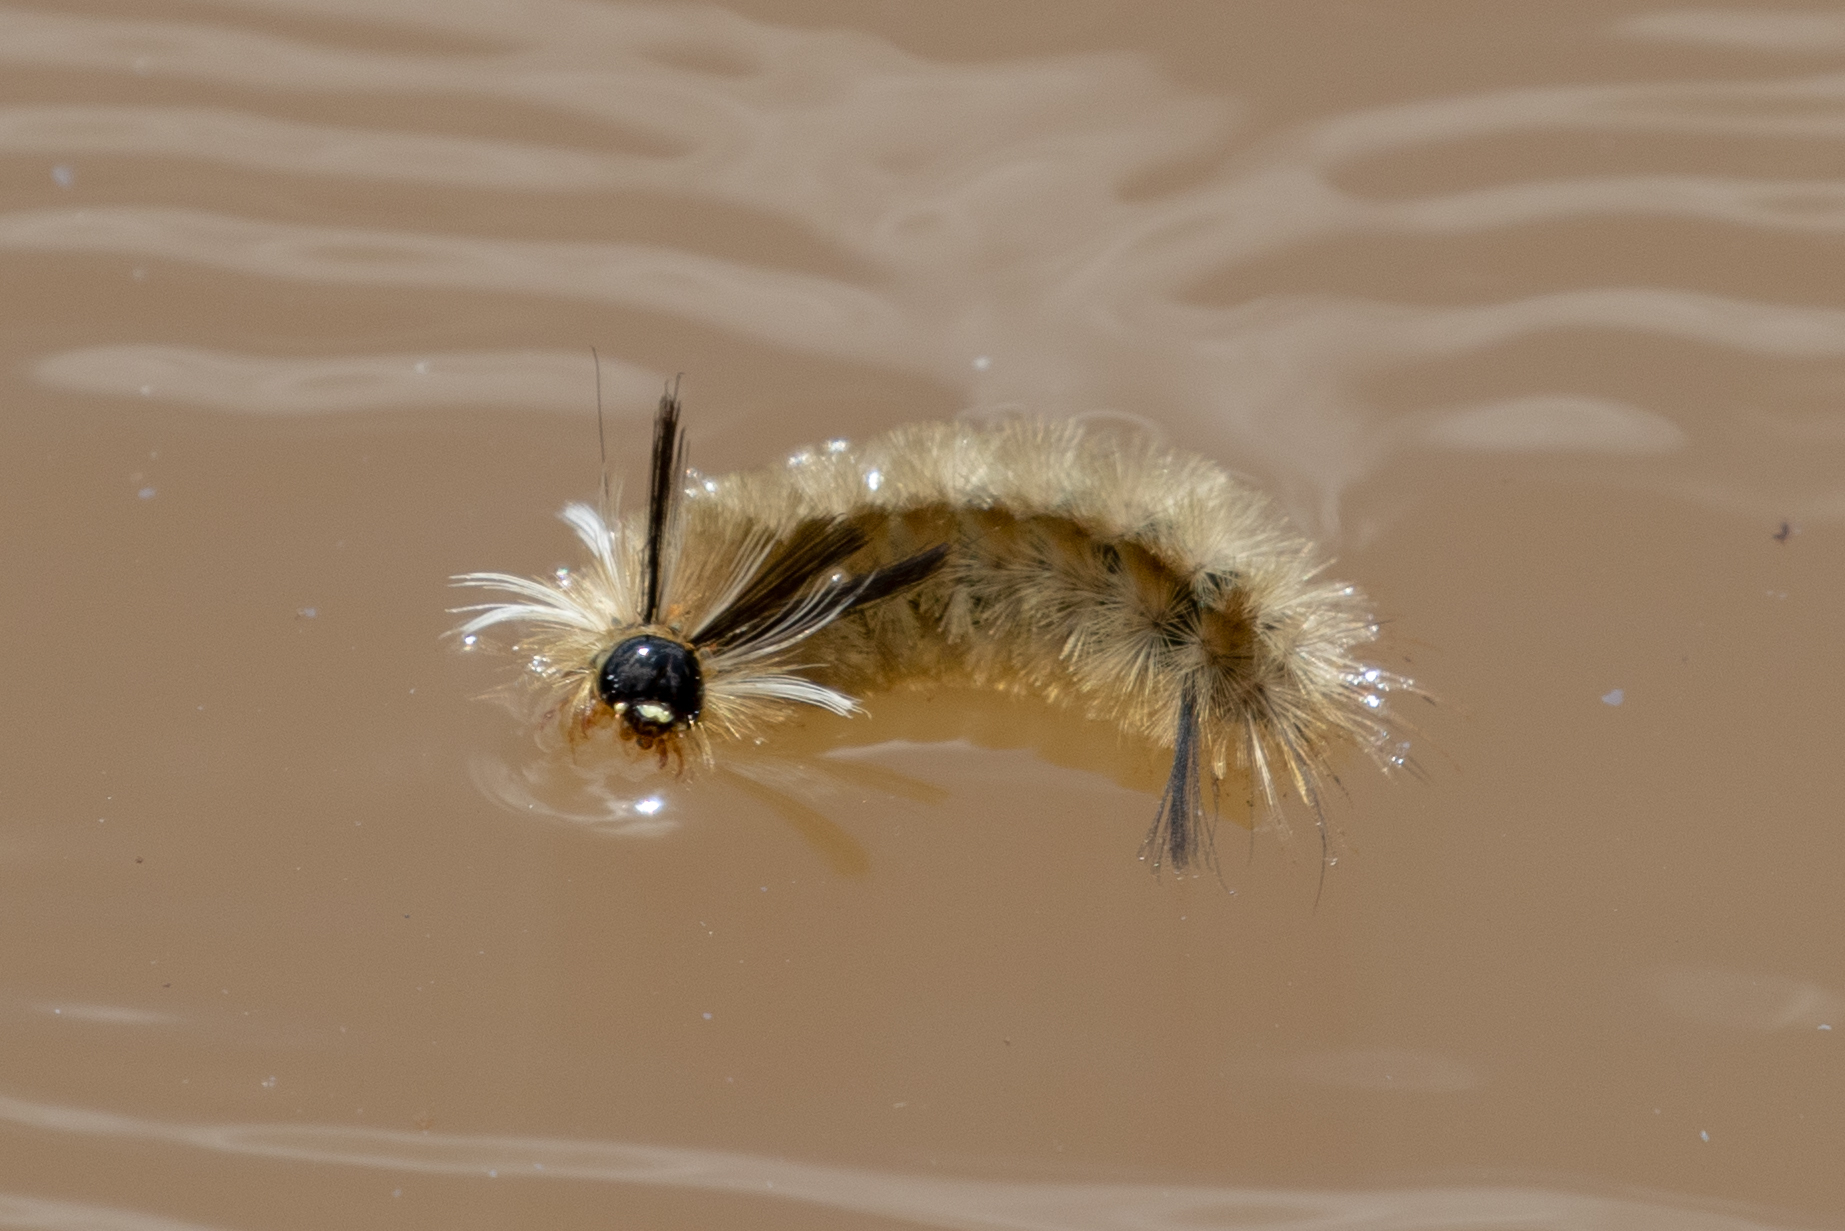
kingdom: Animalia
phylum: Arthropoda
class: Insecta
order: Lepidoptera
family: Erebidae
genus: Halysidota
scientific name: Halysidota tessellaris
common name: Banded tussock moth
